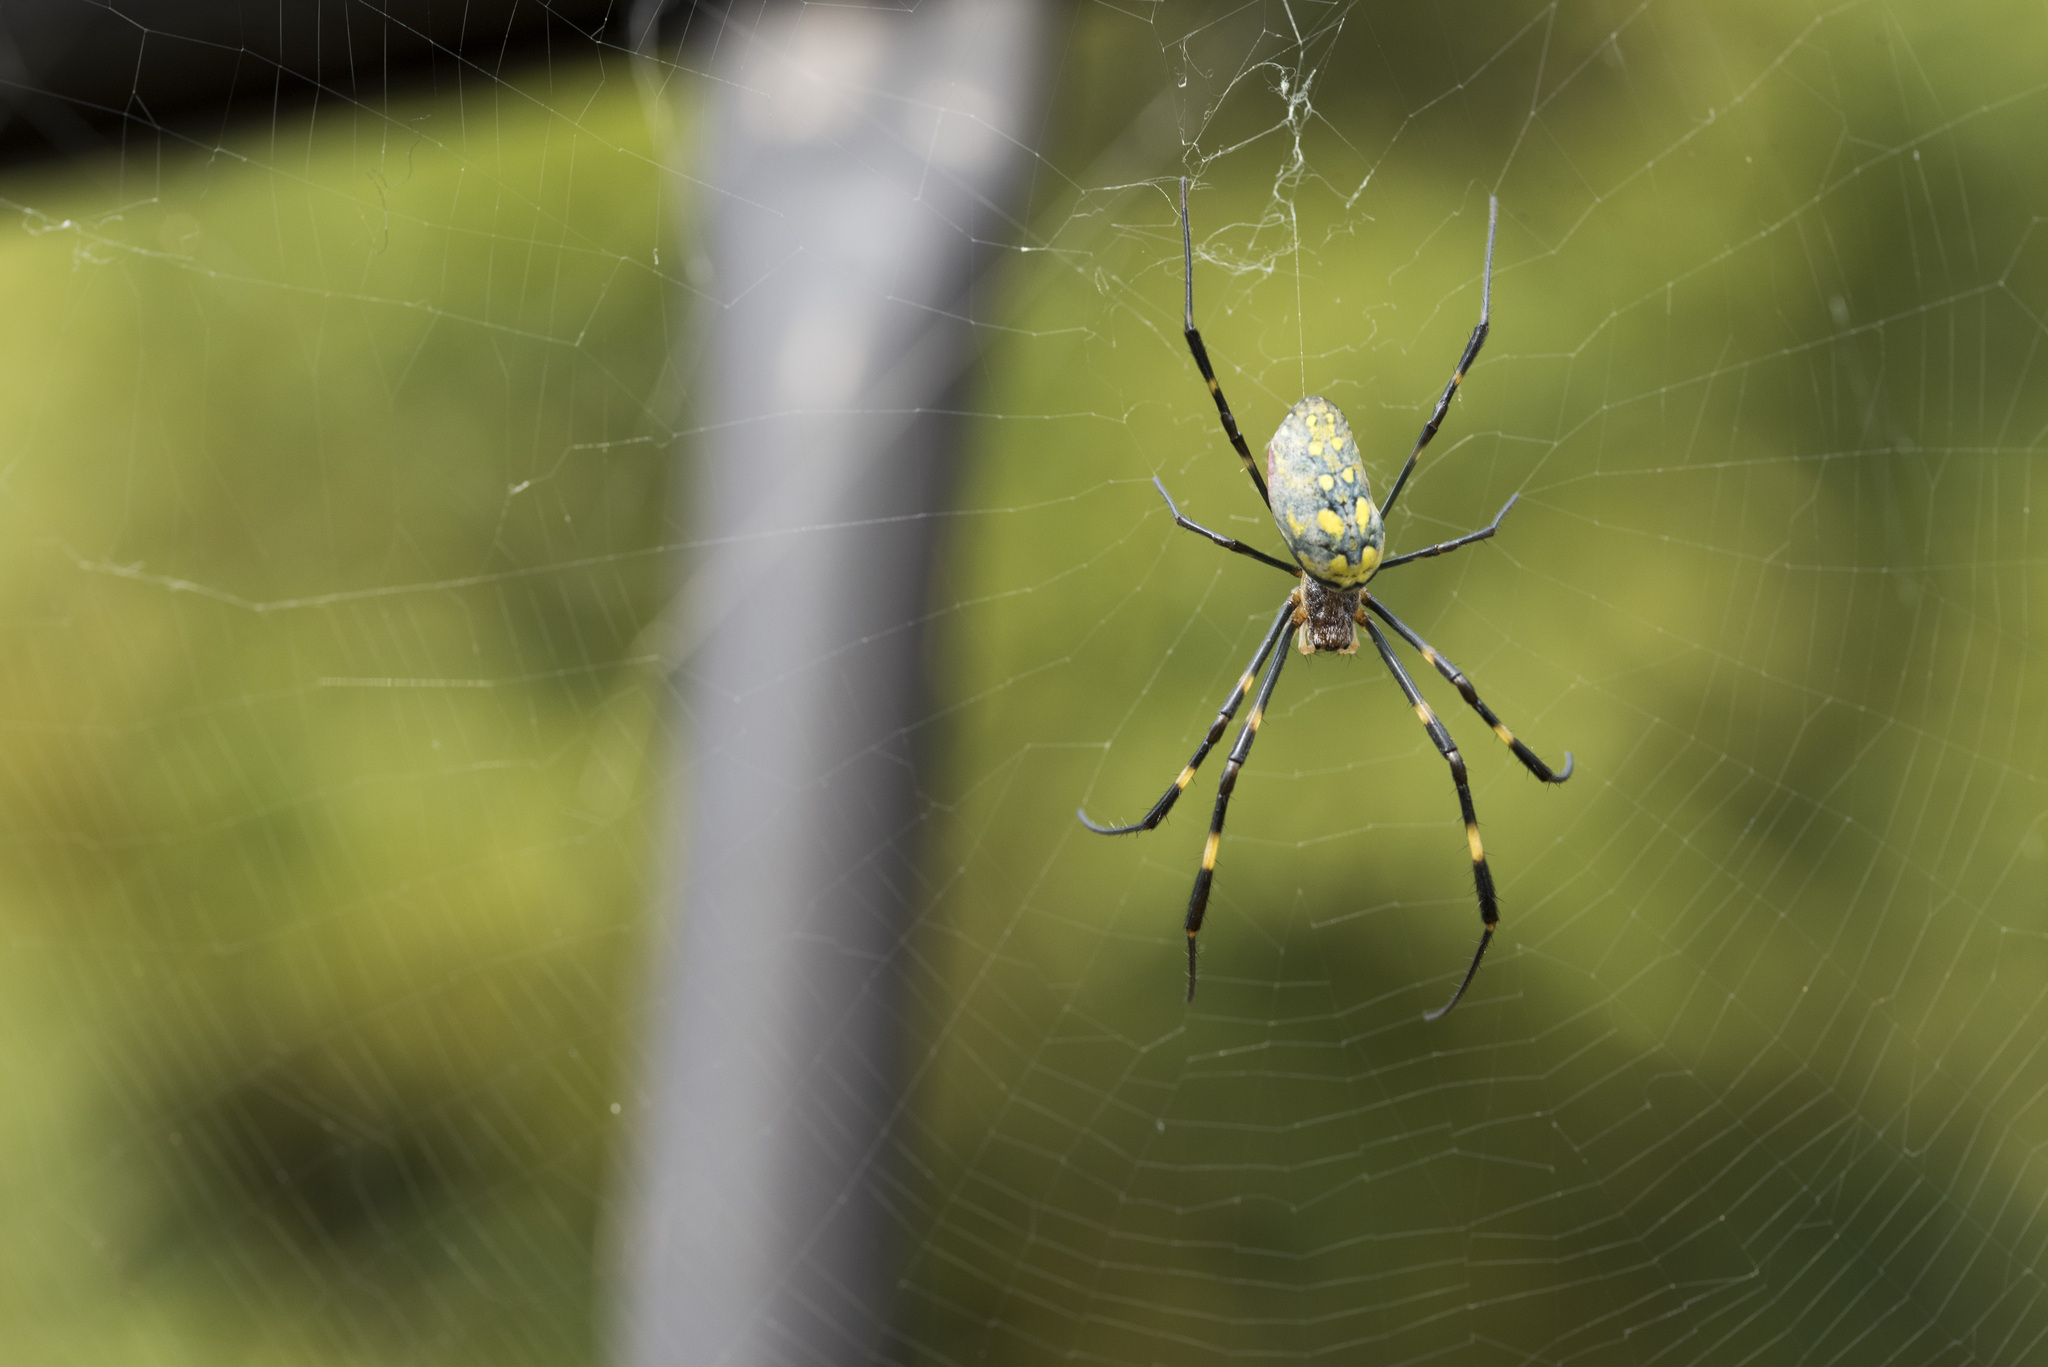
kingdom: Animalia
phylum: Arthropoda
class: Arachnida
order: Araneae
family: Araneidae
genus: Trichonephila
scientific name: Trichonephila clavata
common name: Jorō spider
